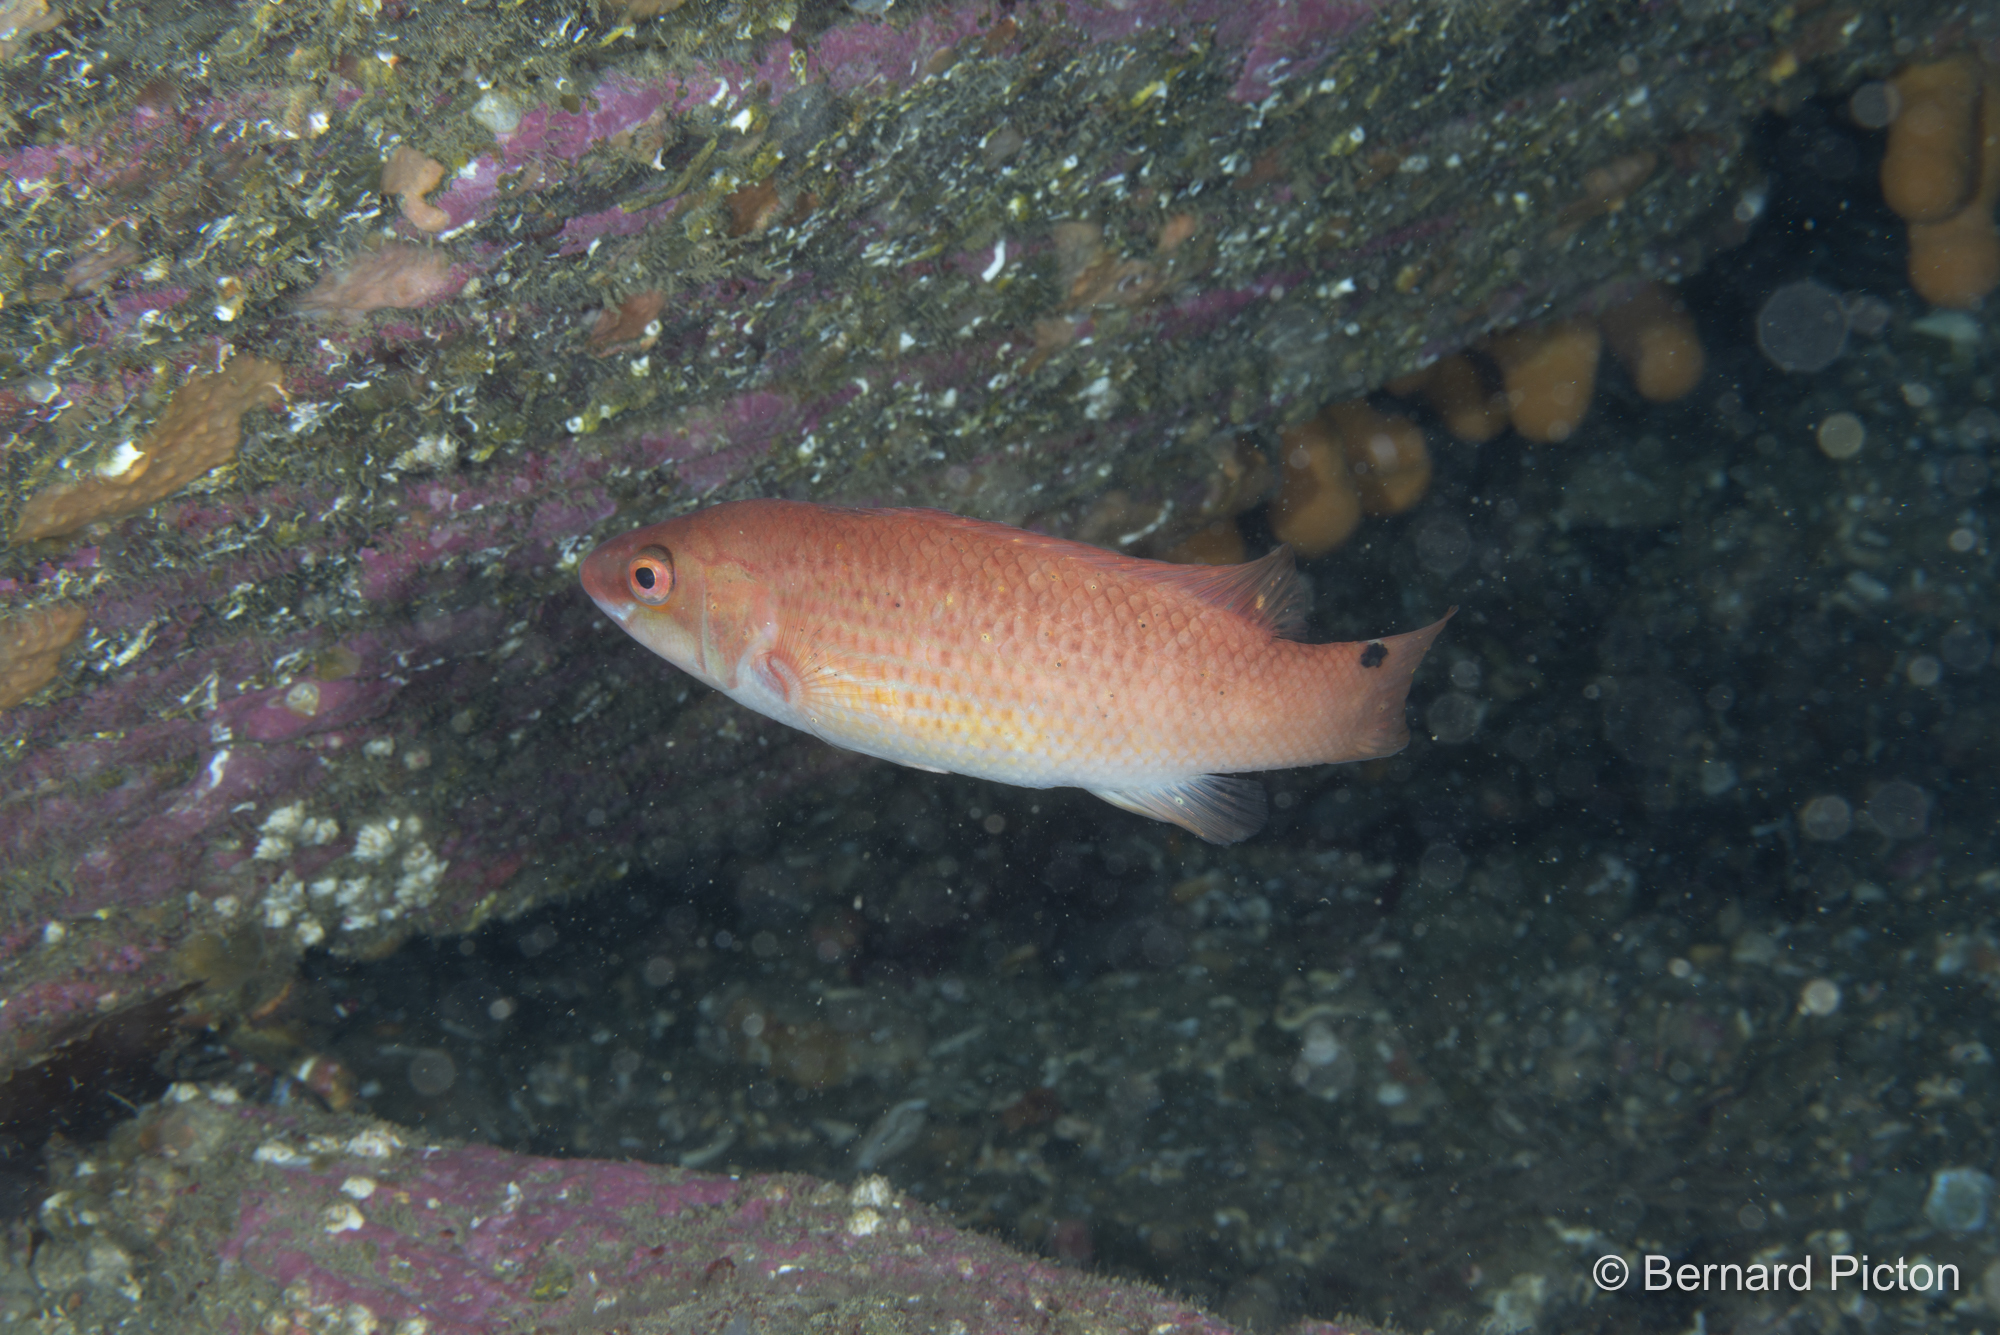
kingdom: Animalia
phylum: Chordata
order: Perciformes
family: Labridae
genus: Ctenolabrus
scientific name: Ctenolabrus rupestris
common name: Goldsinny
